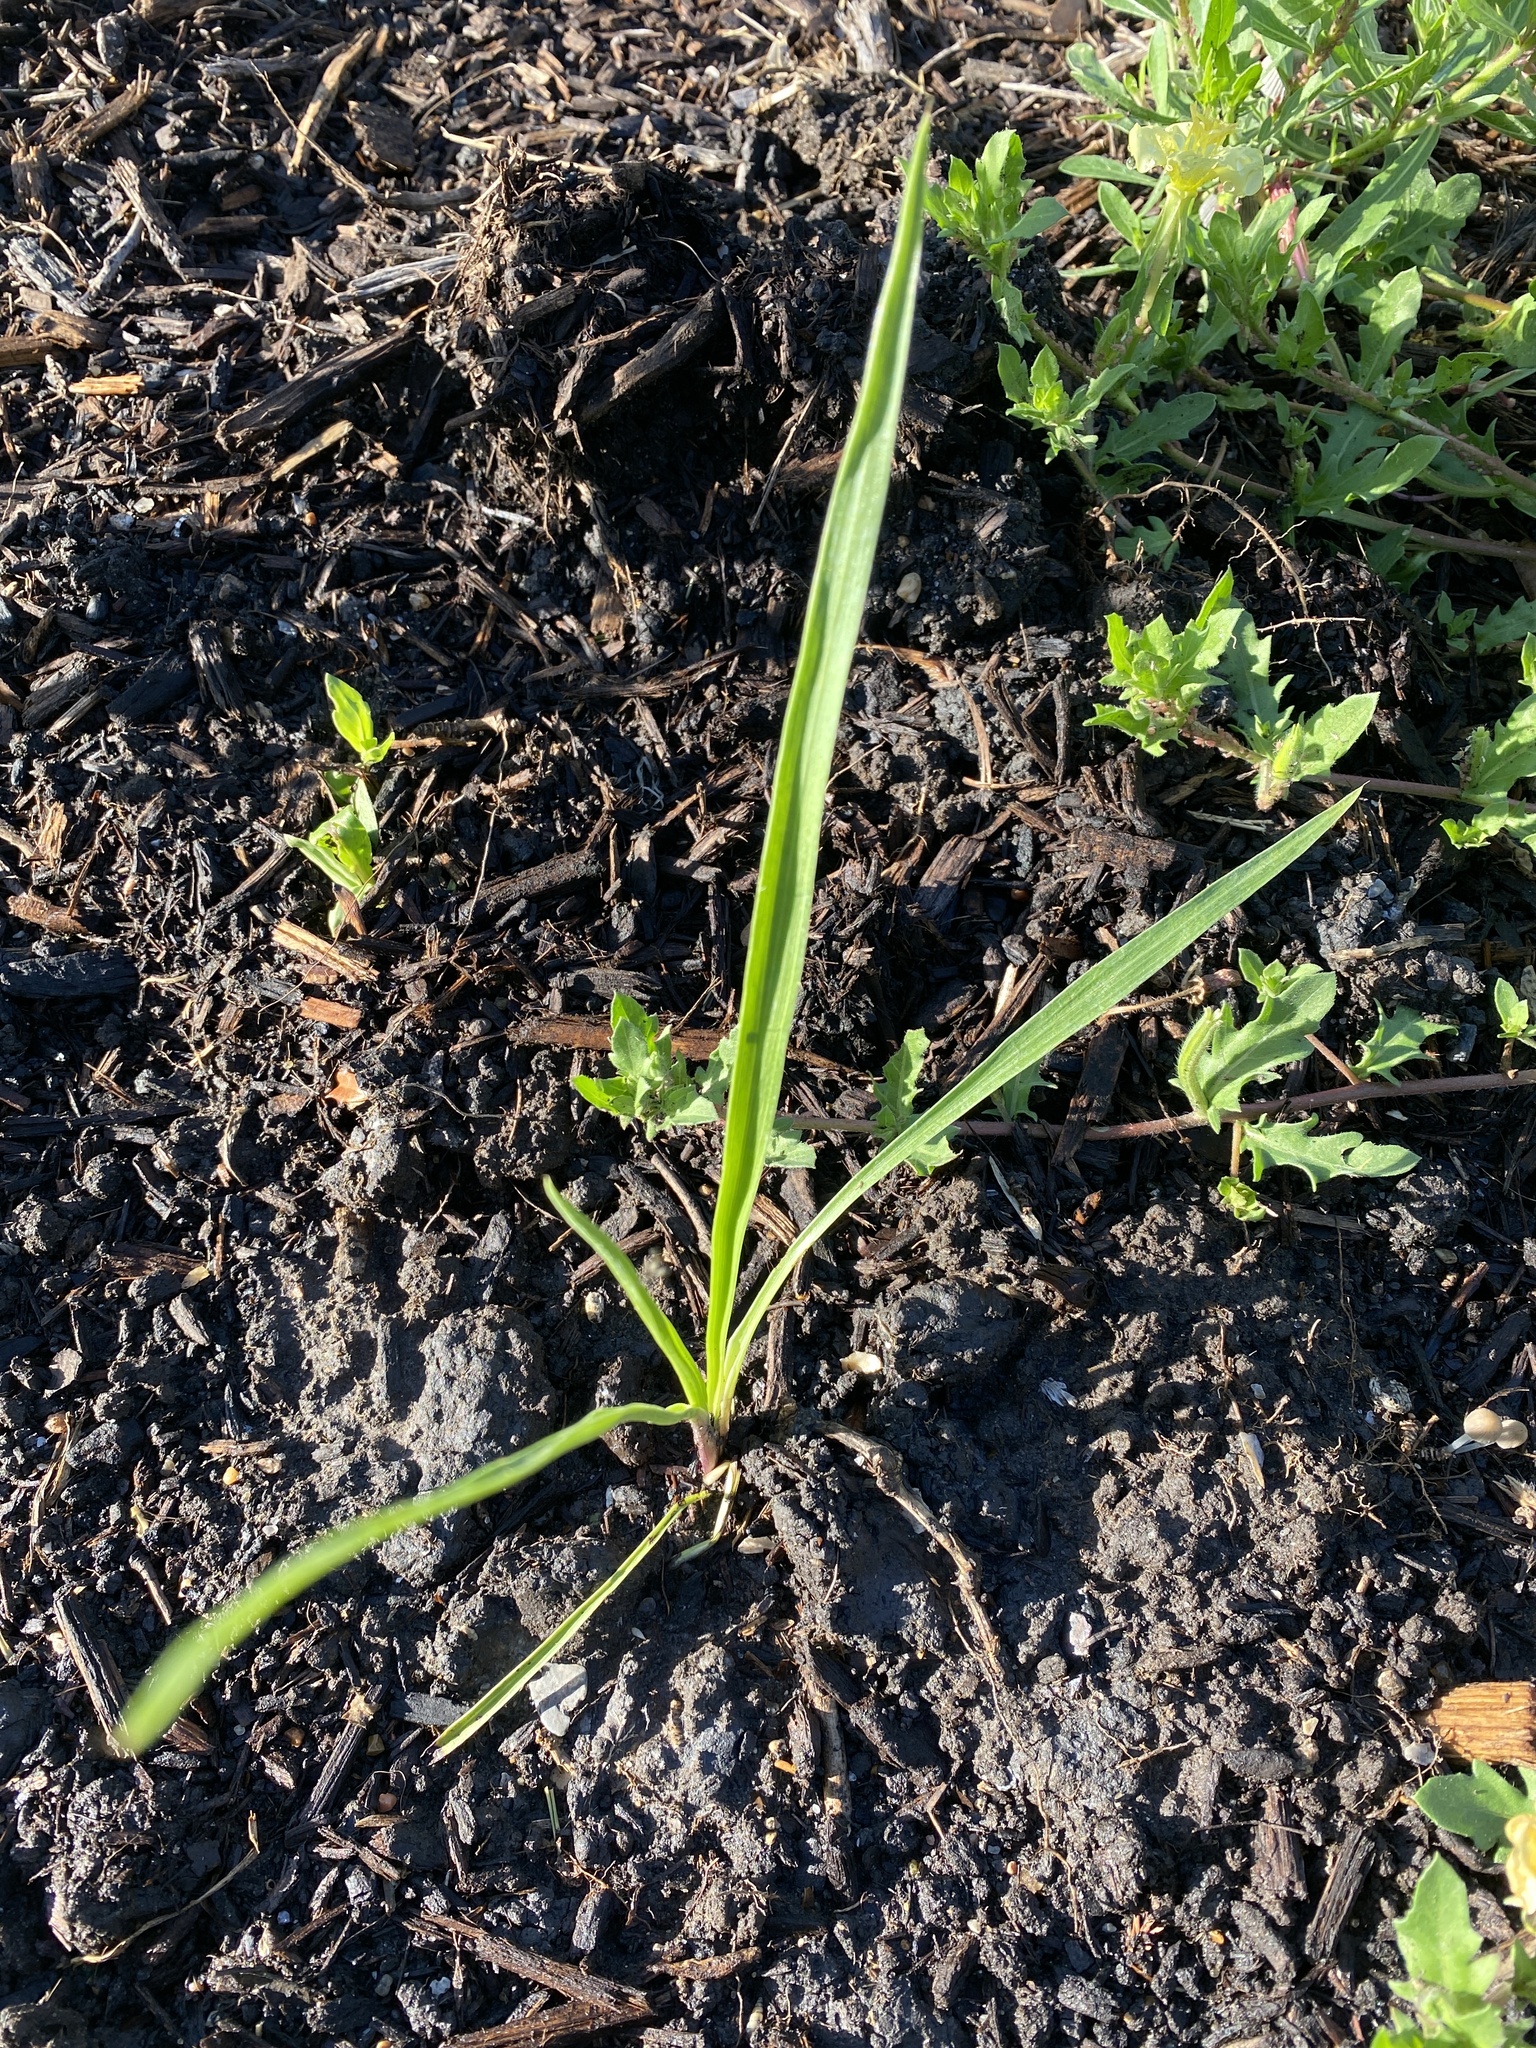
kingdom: Plantae
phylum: Tracheophyta
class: Magnoliopsida
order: Apiales
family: Apiaceae
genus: Eryngium
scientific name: Eryngium yuccifolium
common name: Button eryngo
